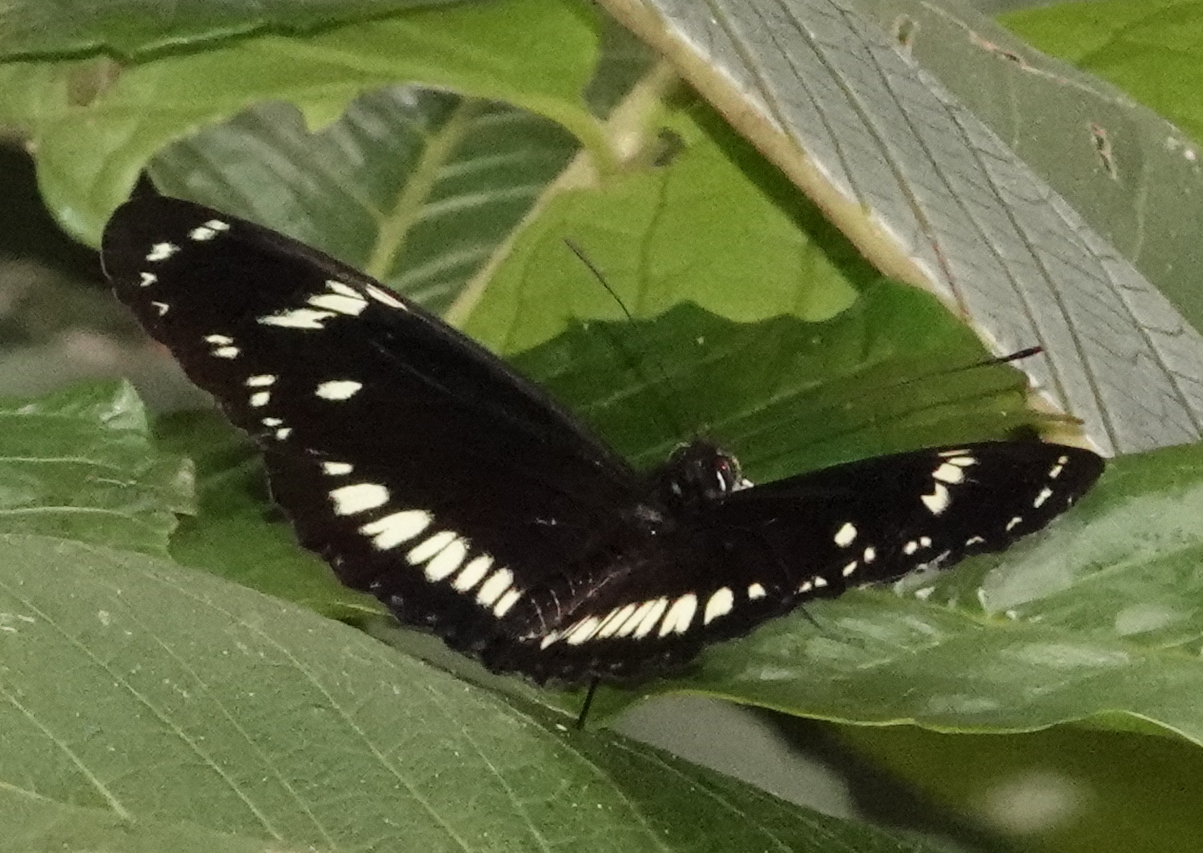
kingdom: Animalia
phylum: Arthropoda
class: Insecta
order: Lepidoptera
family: Nymphalidae
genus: Heliconius
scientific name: Heliconius hecuba
